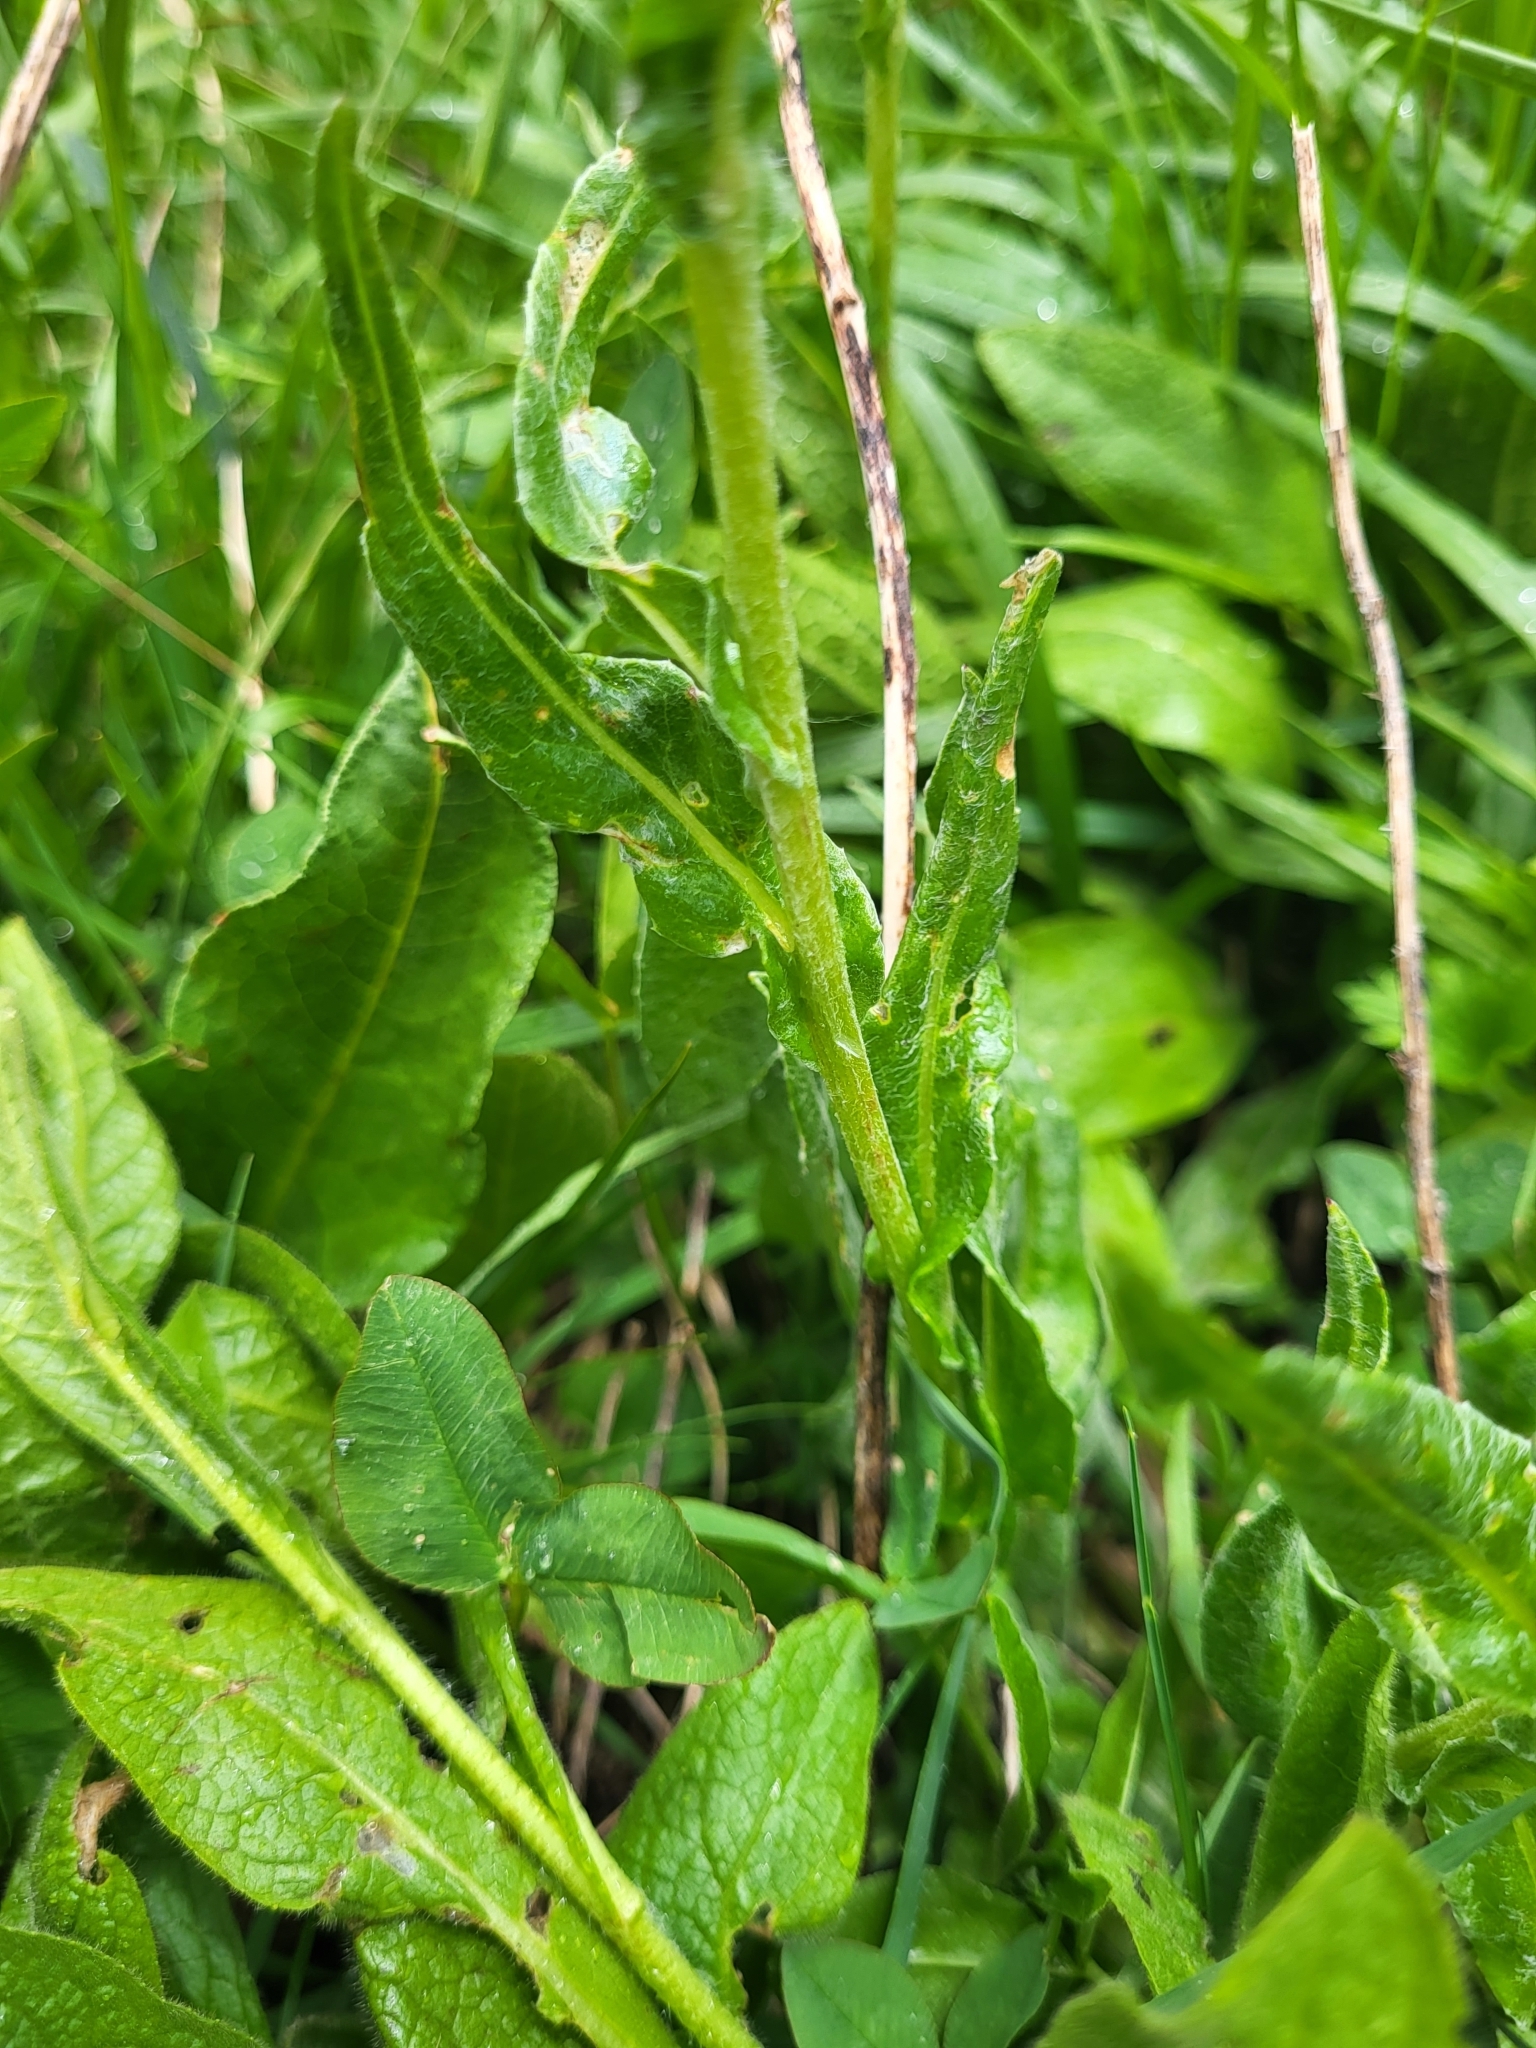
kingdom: Plantae
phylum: Tracheophyta
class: Magnoliopsida
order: Asterales
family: Asteraceae
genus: Centaurea
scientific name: Centaurea cheiranthifolia
